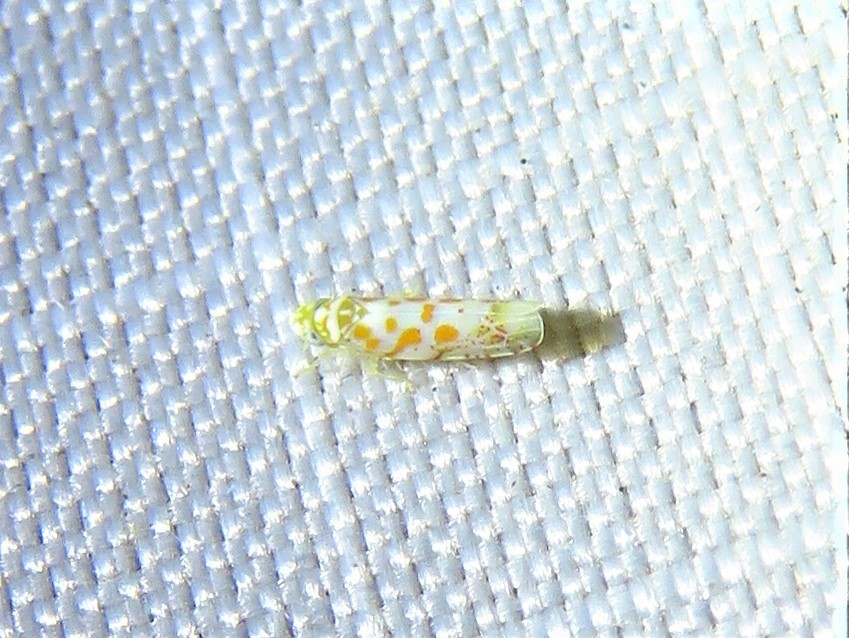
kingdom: Animalia
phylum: Arthropoda
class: Insecta
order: Hemiptera
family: Cicadellidae
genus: Dikrella
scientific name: Dikrella maculata
